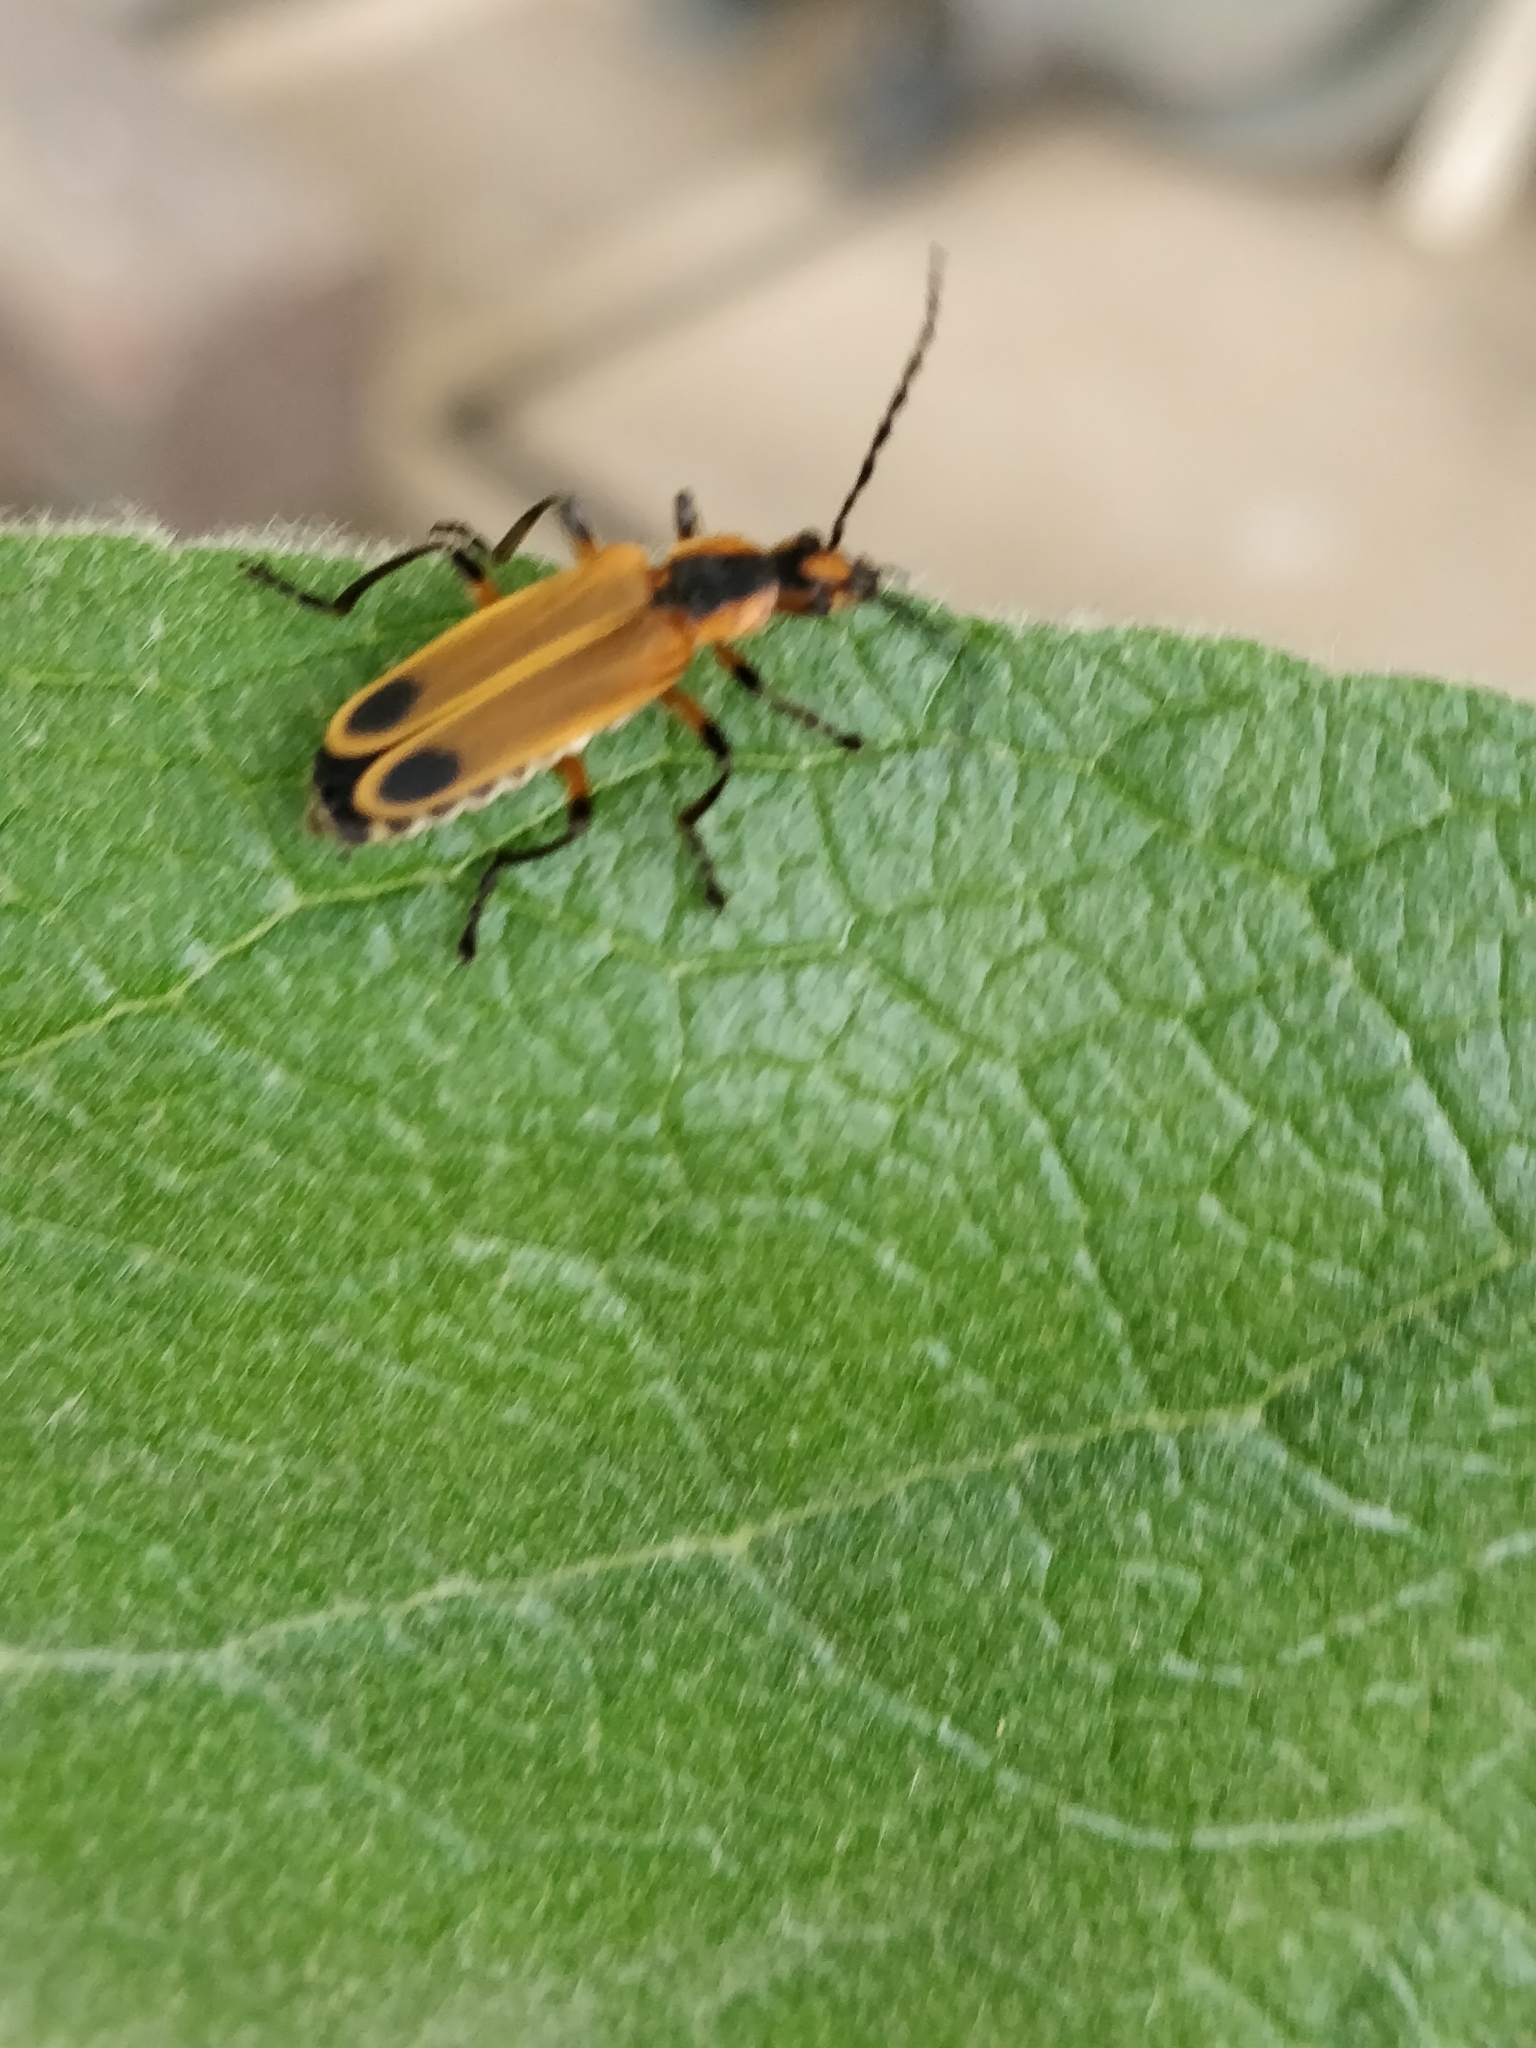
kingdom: Animalia
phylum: Arthropoda
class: Insecta
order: Coleoptera
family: Cantharidae
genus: Chauliognathus
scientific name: Chauliognathus marginatus
